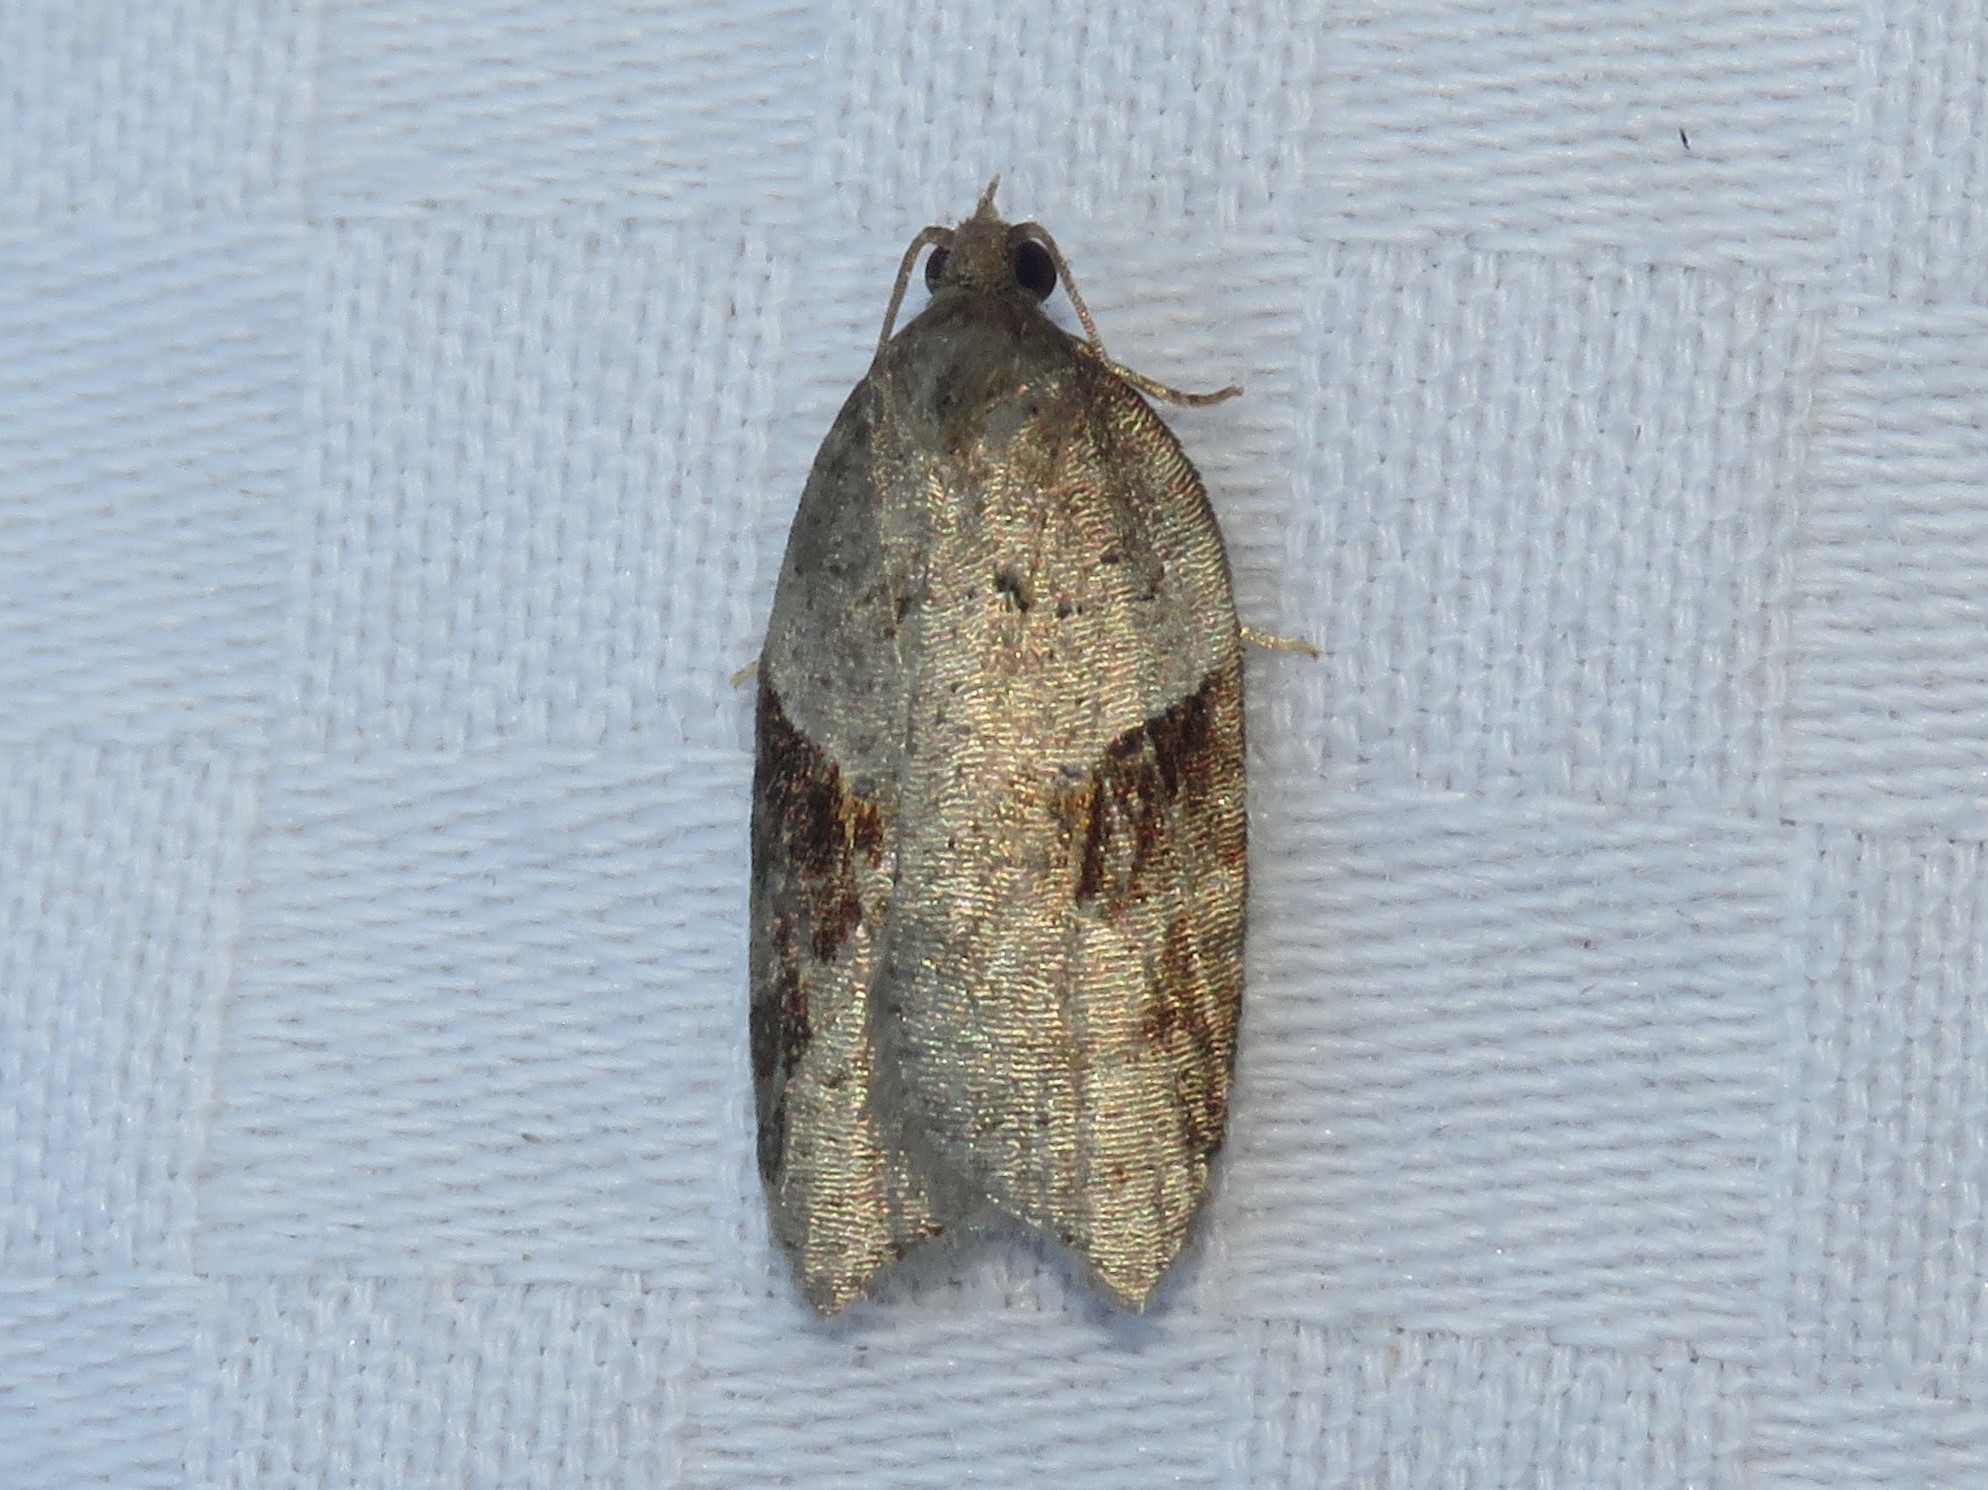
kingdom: Animalia
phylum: Arthropoda
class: Insecta
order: Lepidoptera
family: Tortricidae
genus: Acleris
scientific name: Acleris macdunnoughi
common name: Macdunnough's acleris
